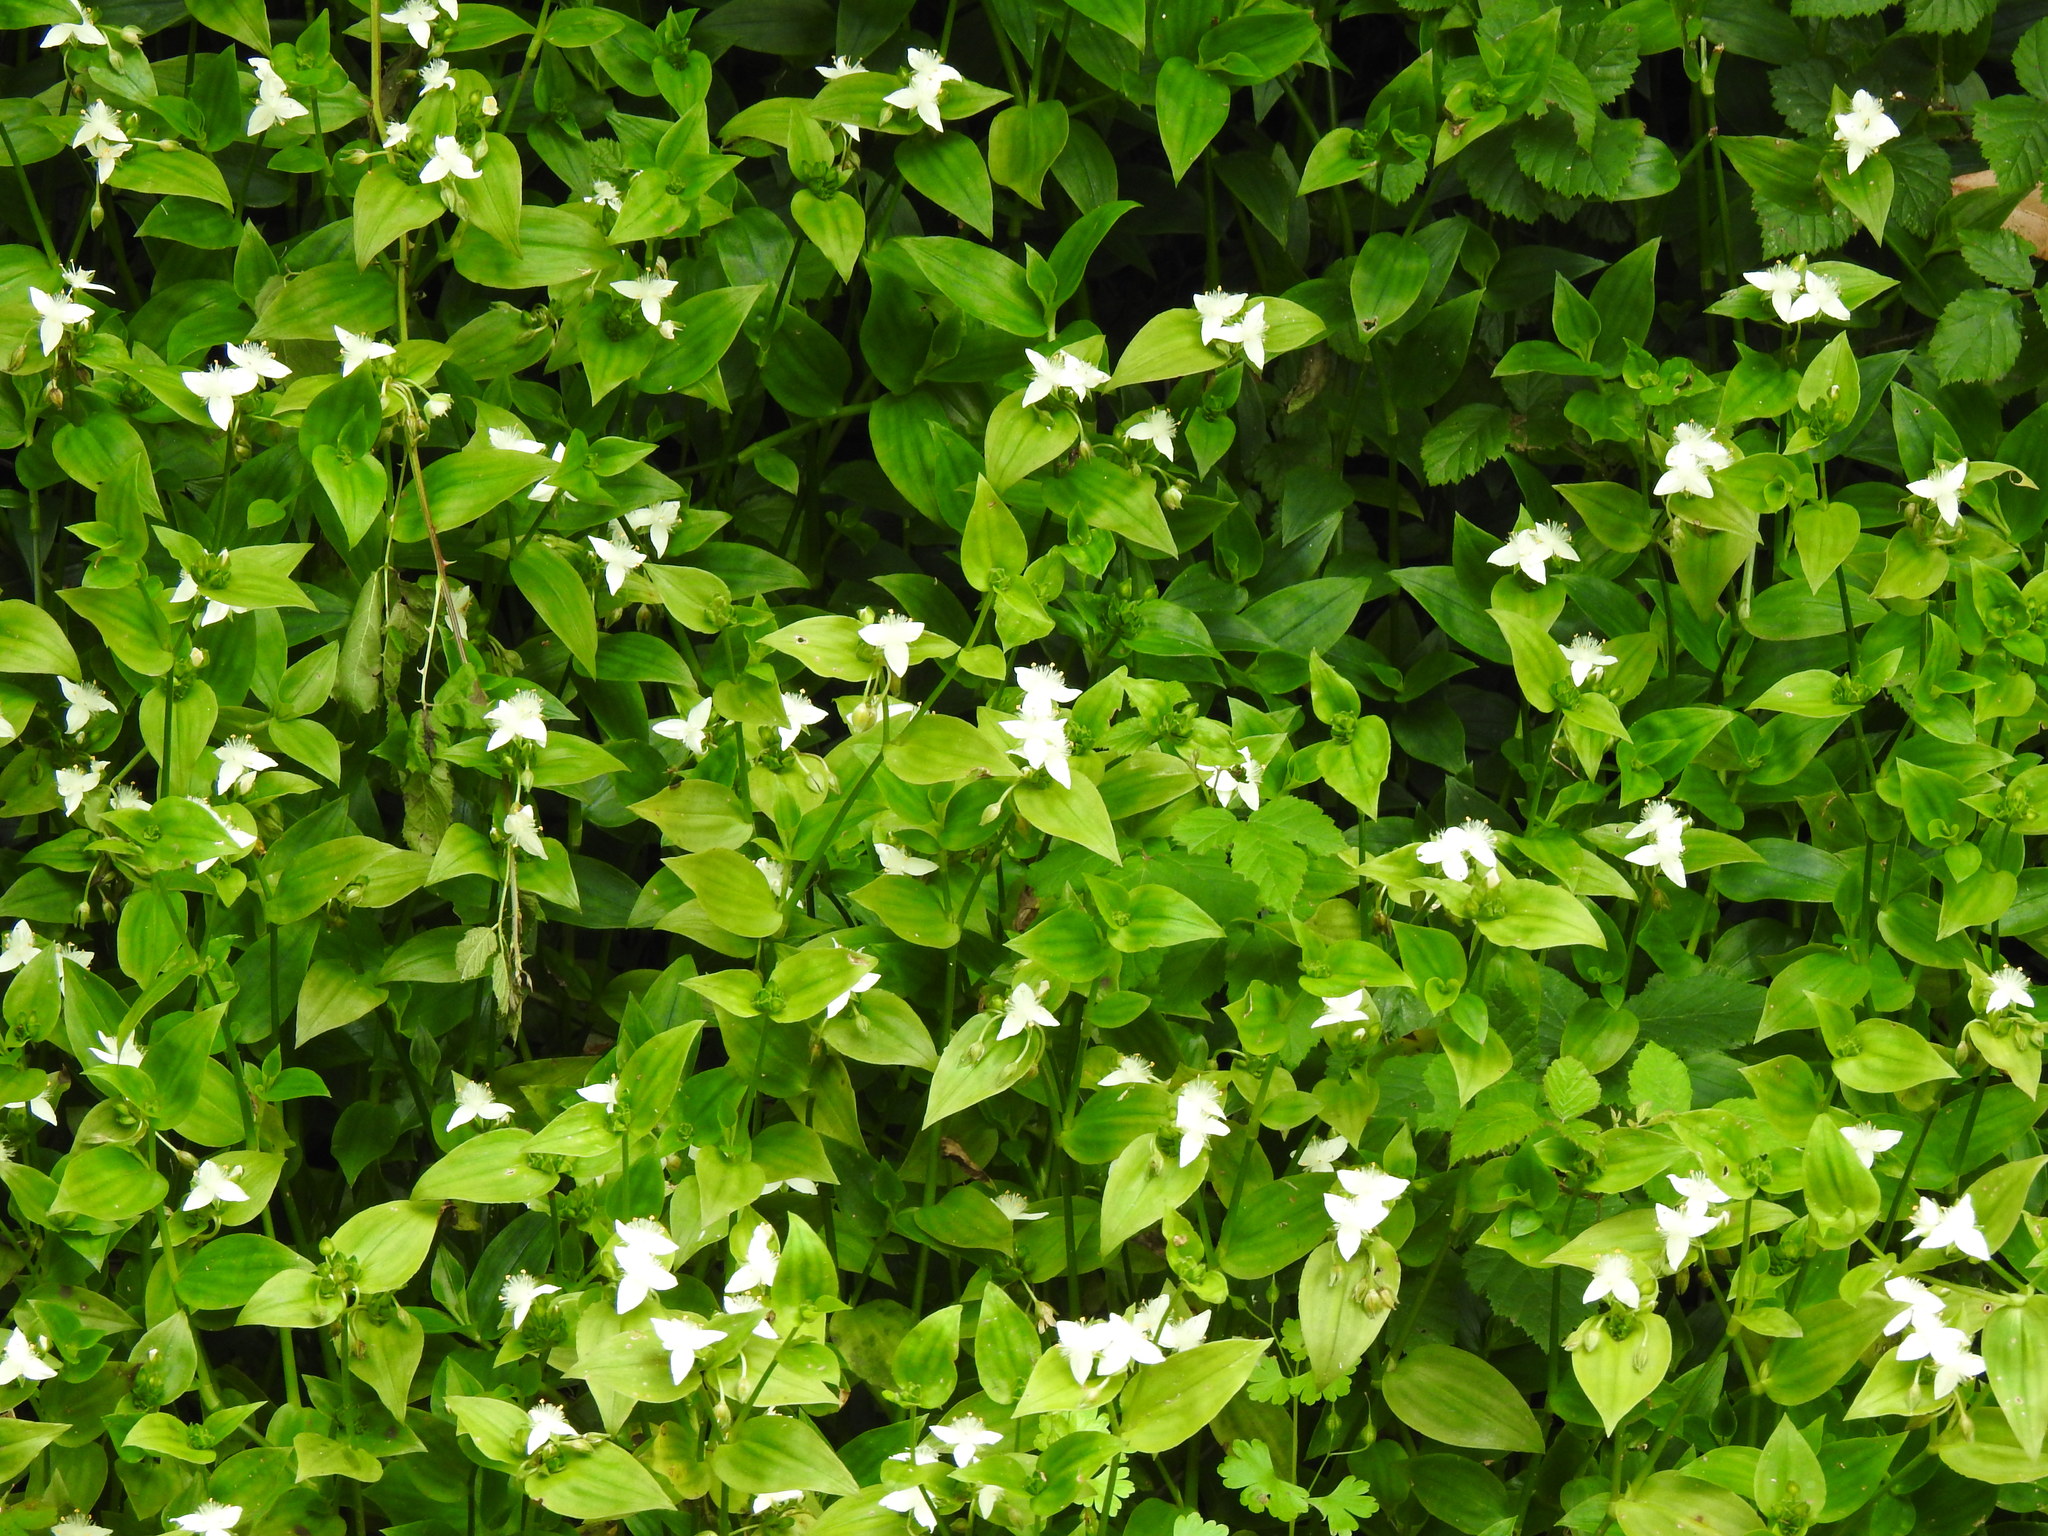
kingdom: Plantae
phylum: Tracheophyta
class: Liliopsida
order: Commelinales
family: Commelinaceae
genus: Tradescantia
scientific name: Tradescantia fluminensis
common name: Wandering-jew
